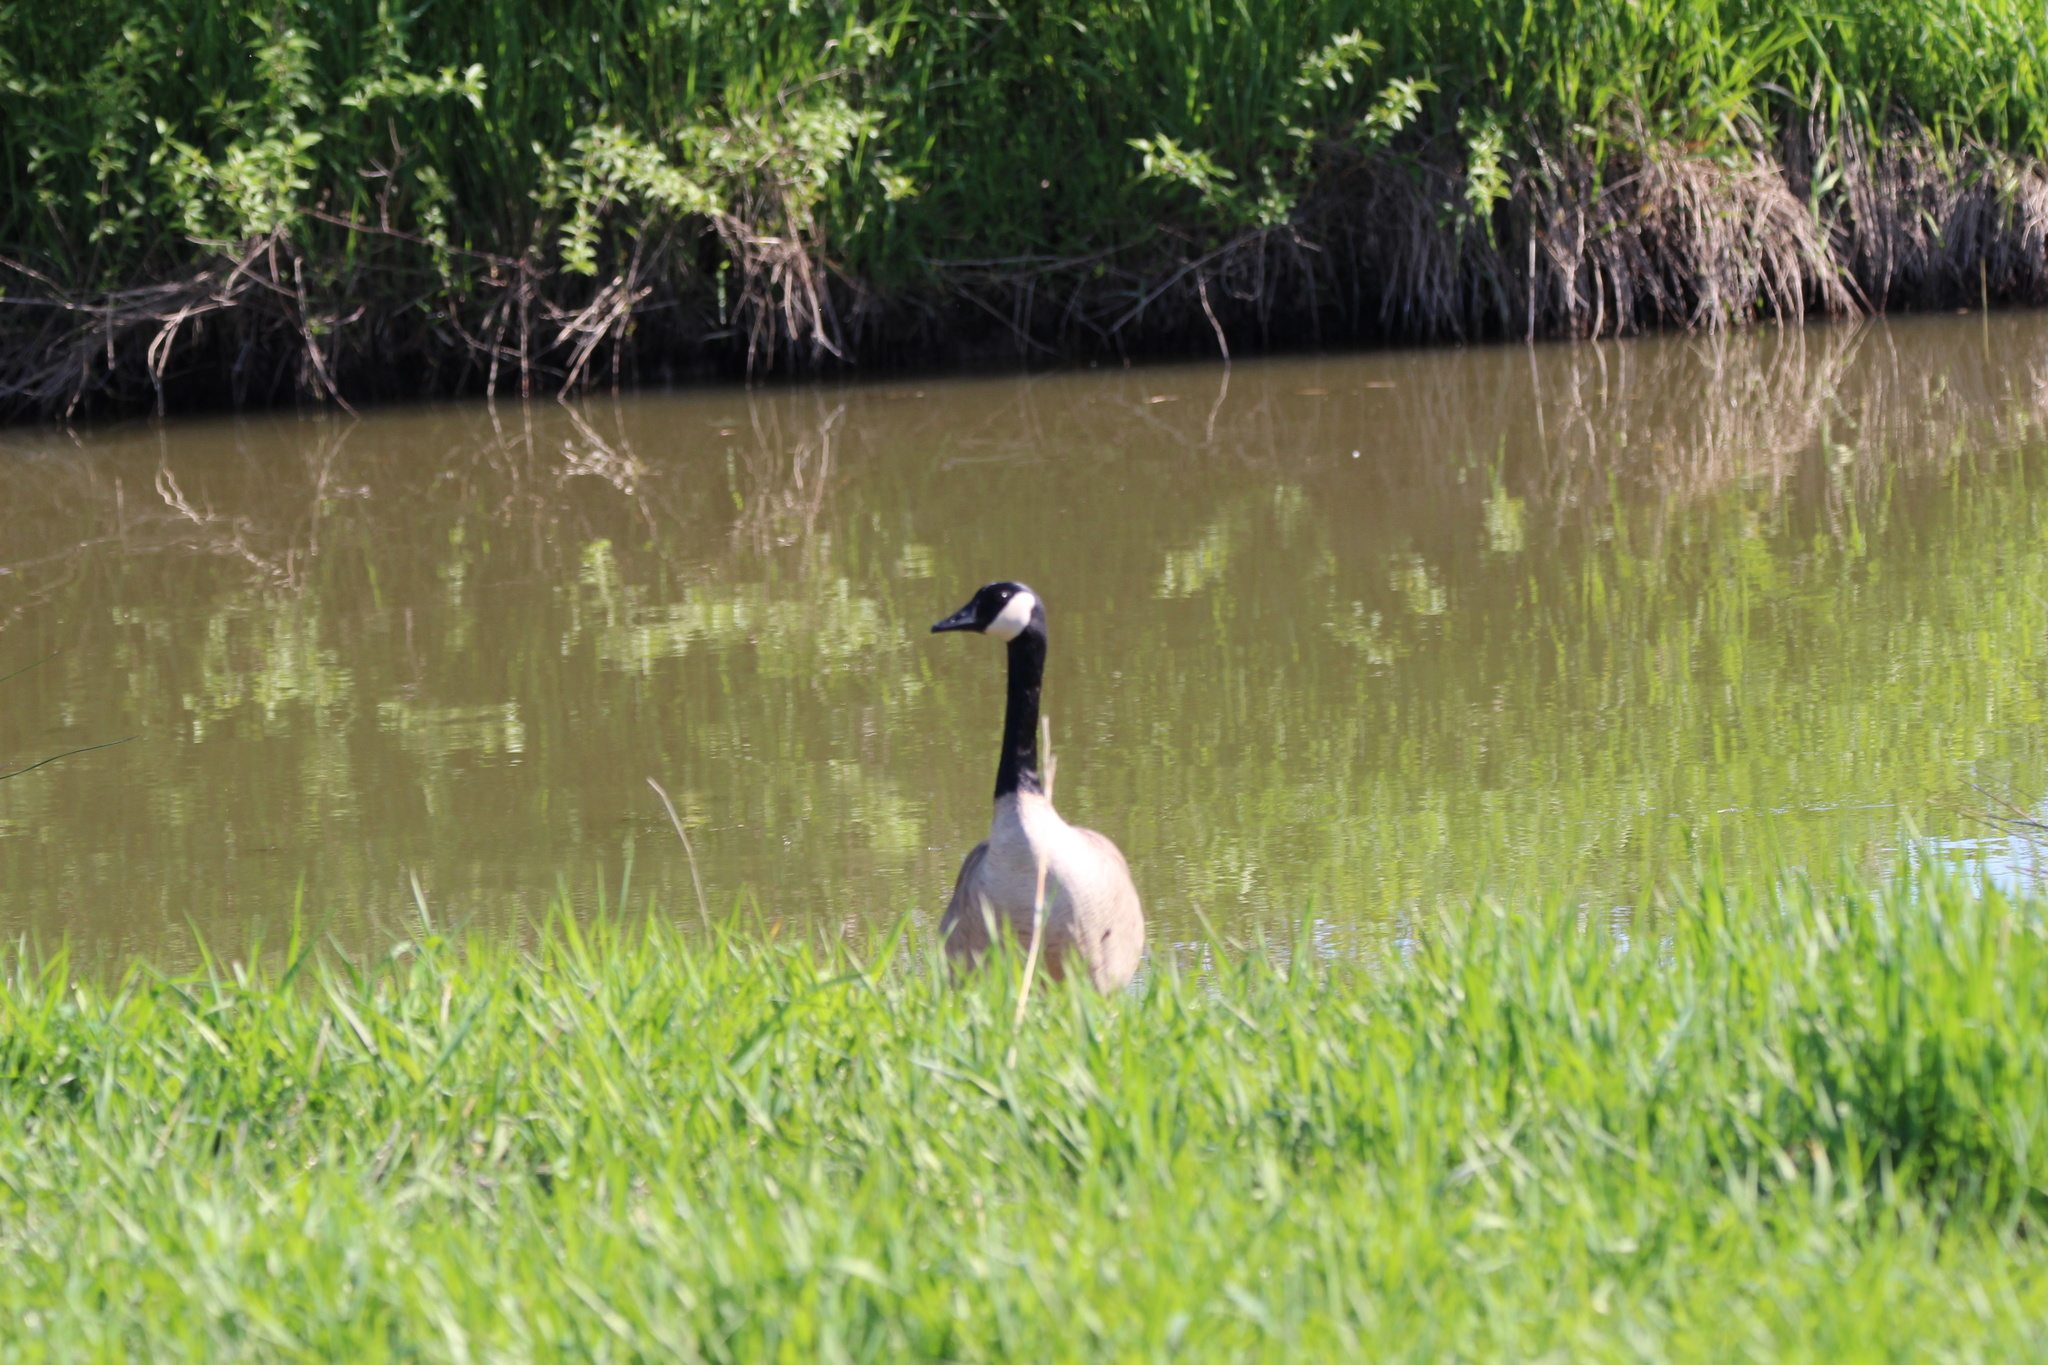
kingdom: Animalia
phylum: Chordata
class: Aves
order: Anseriformes
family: Anatidae
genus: Branta
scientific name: Branta canadensis
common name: Canada goose
